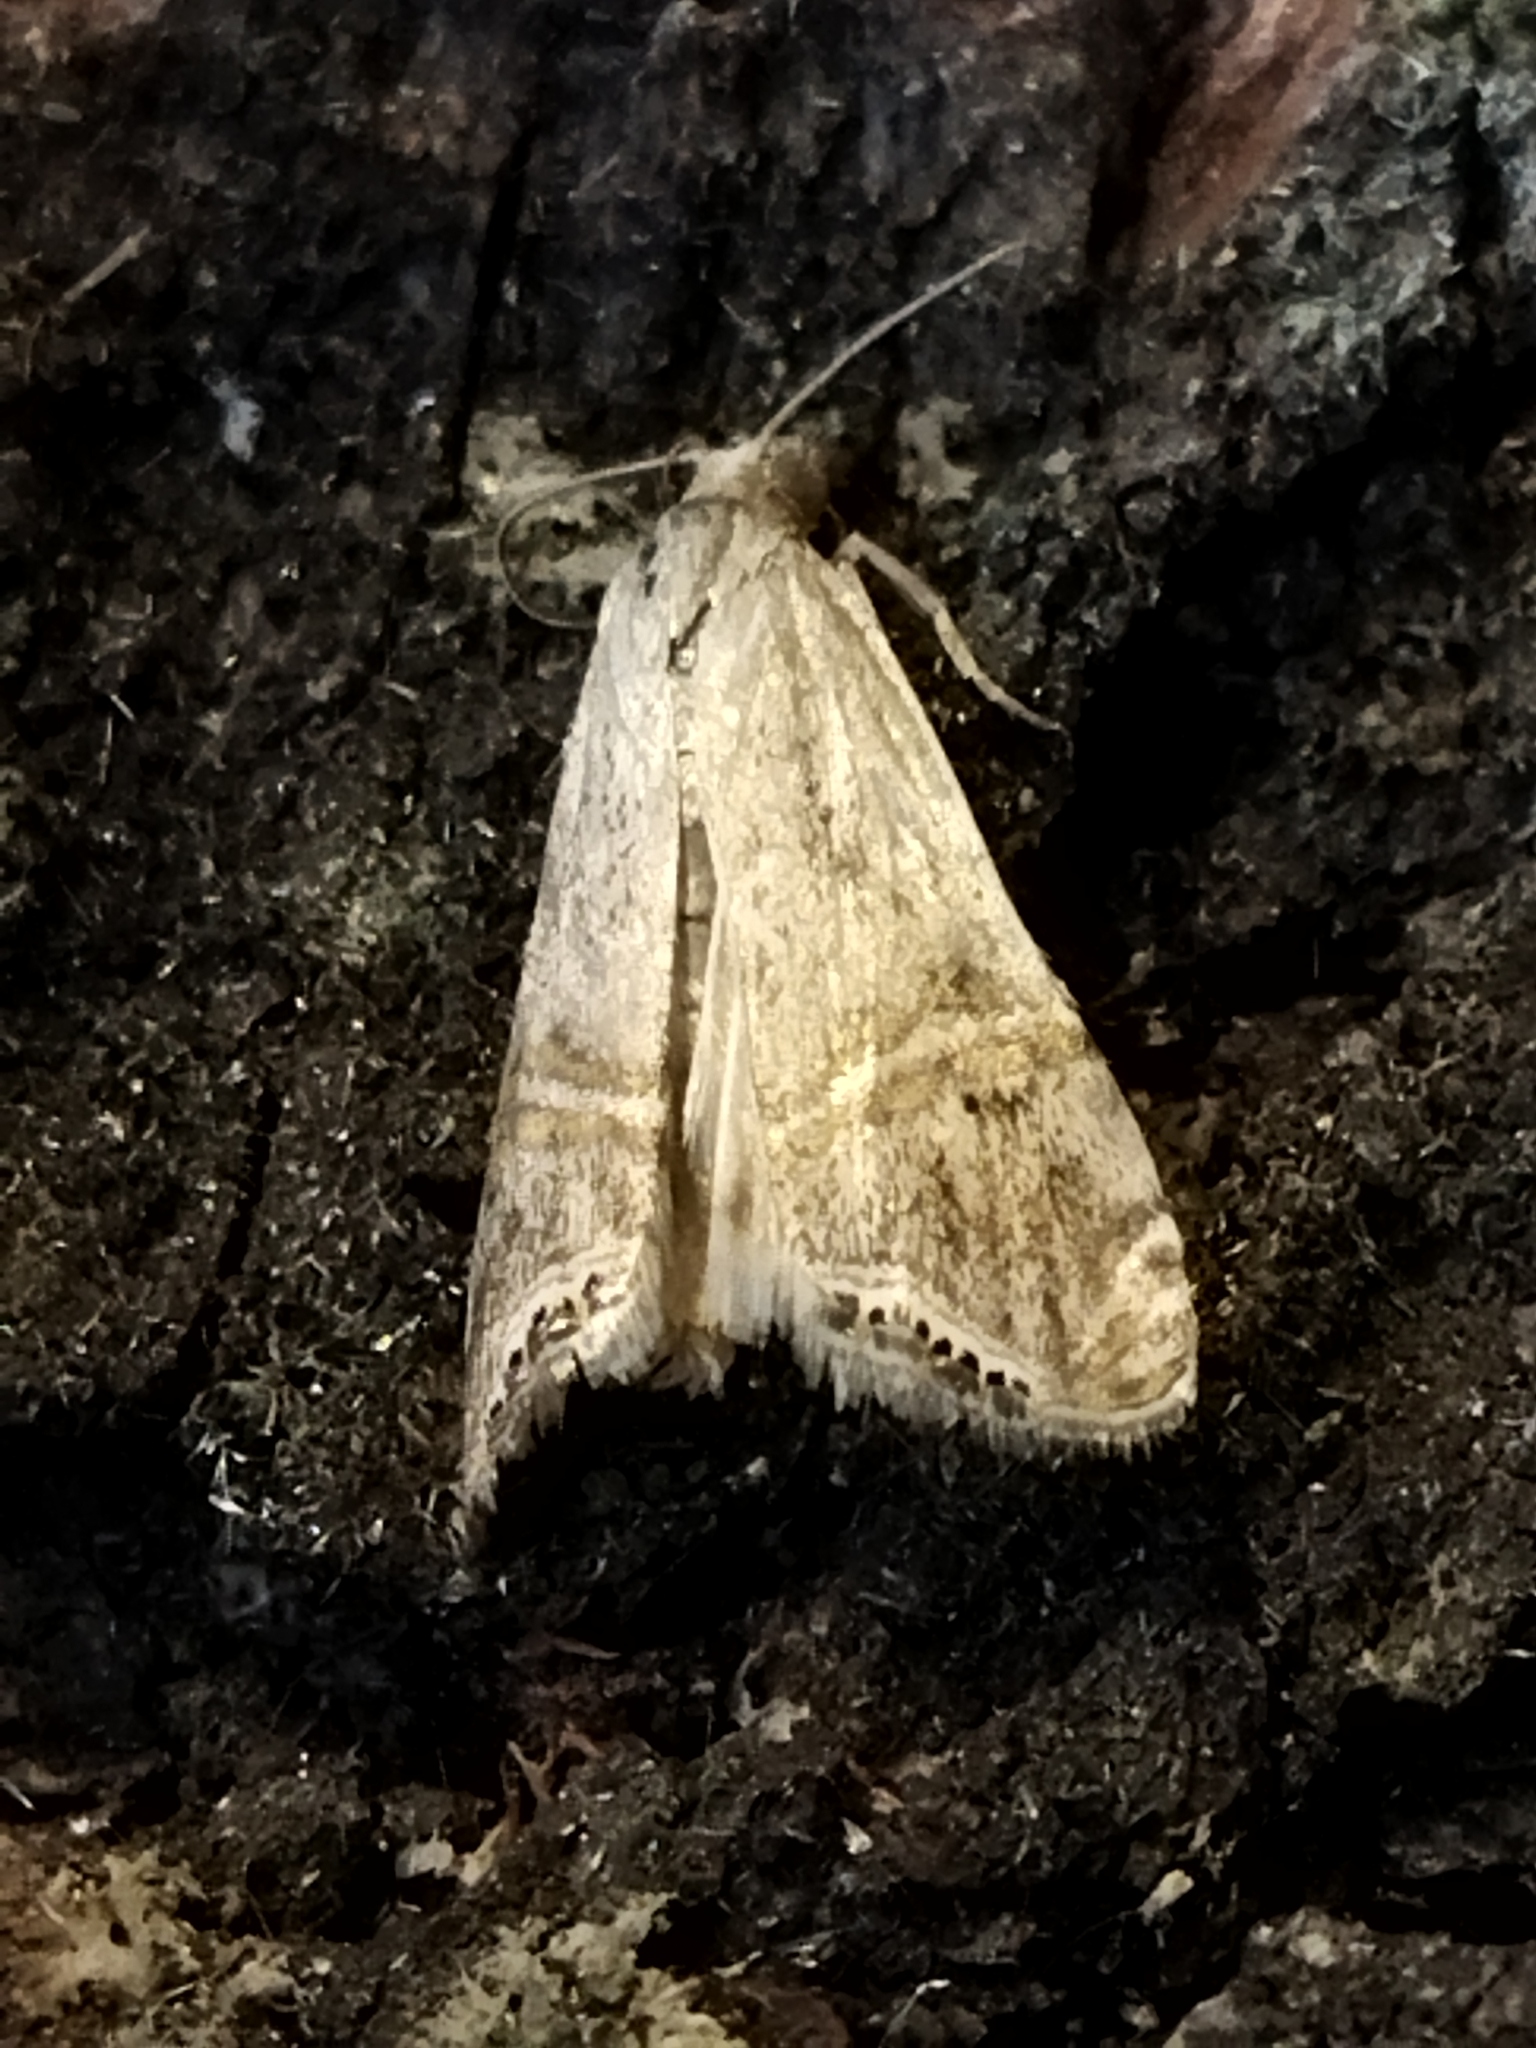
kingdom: Animalia
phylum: Arthropoda
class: Insecta
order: Lepidoptera
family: Crambidae
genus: Euchromius
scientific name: Euchromius ocellea
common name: Necklace veneer moth
